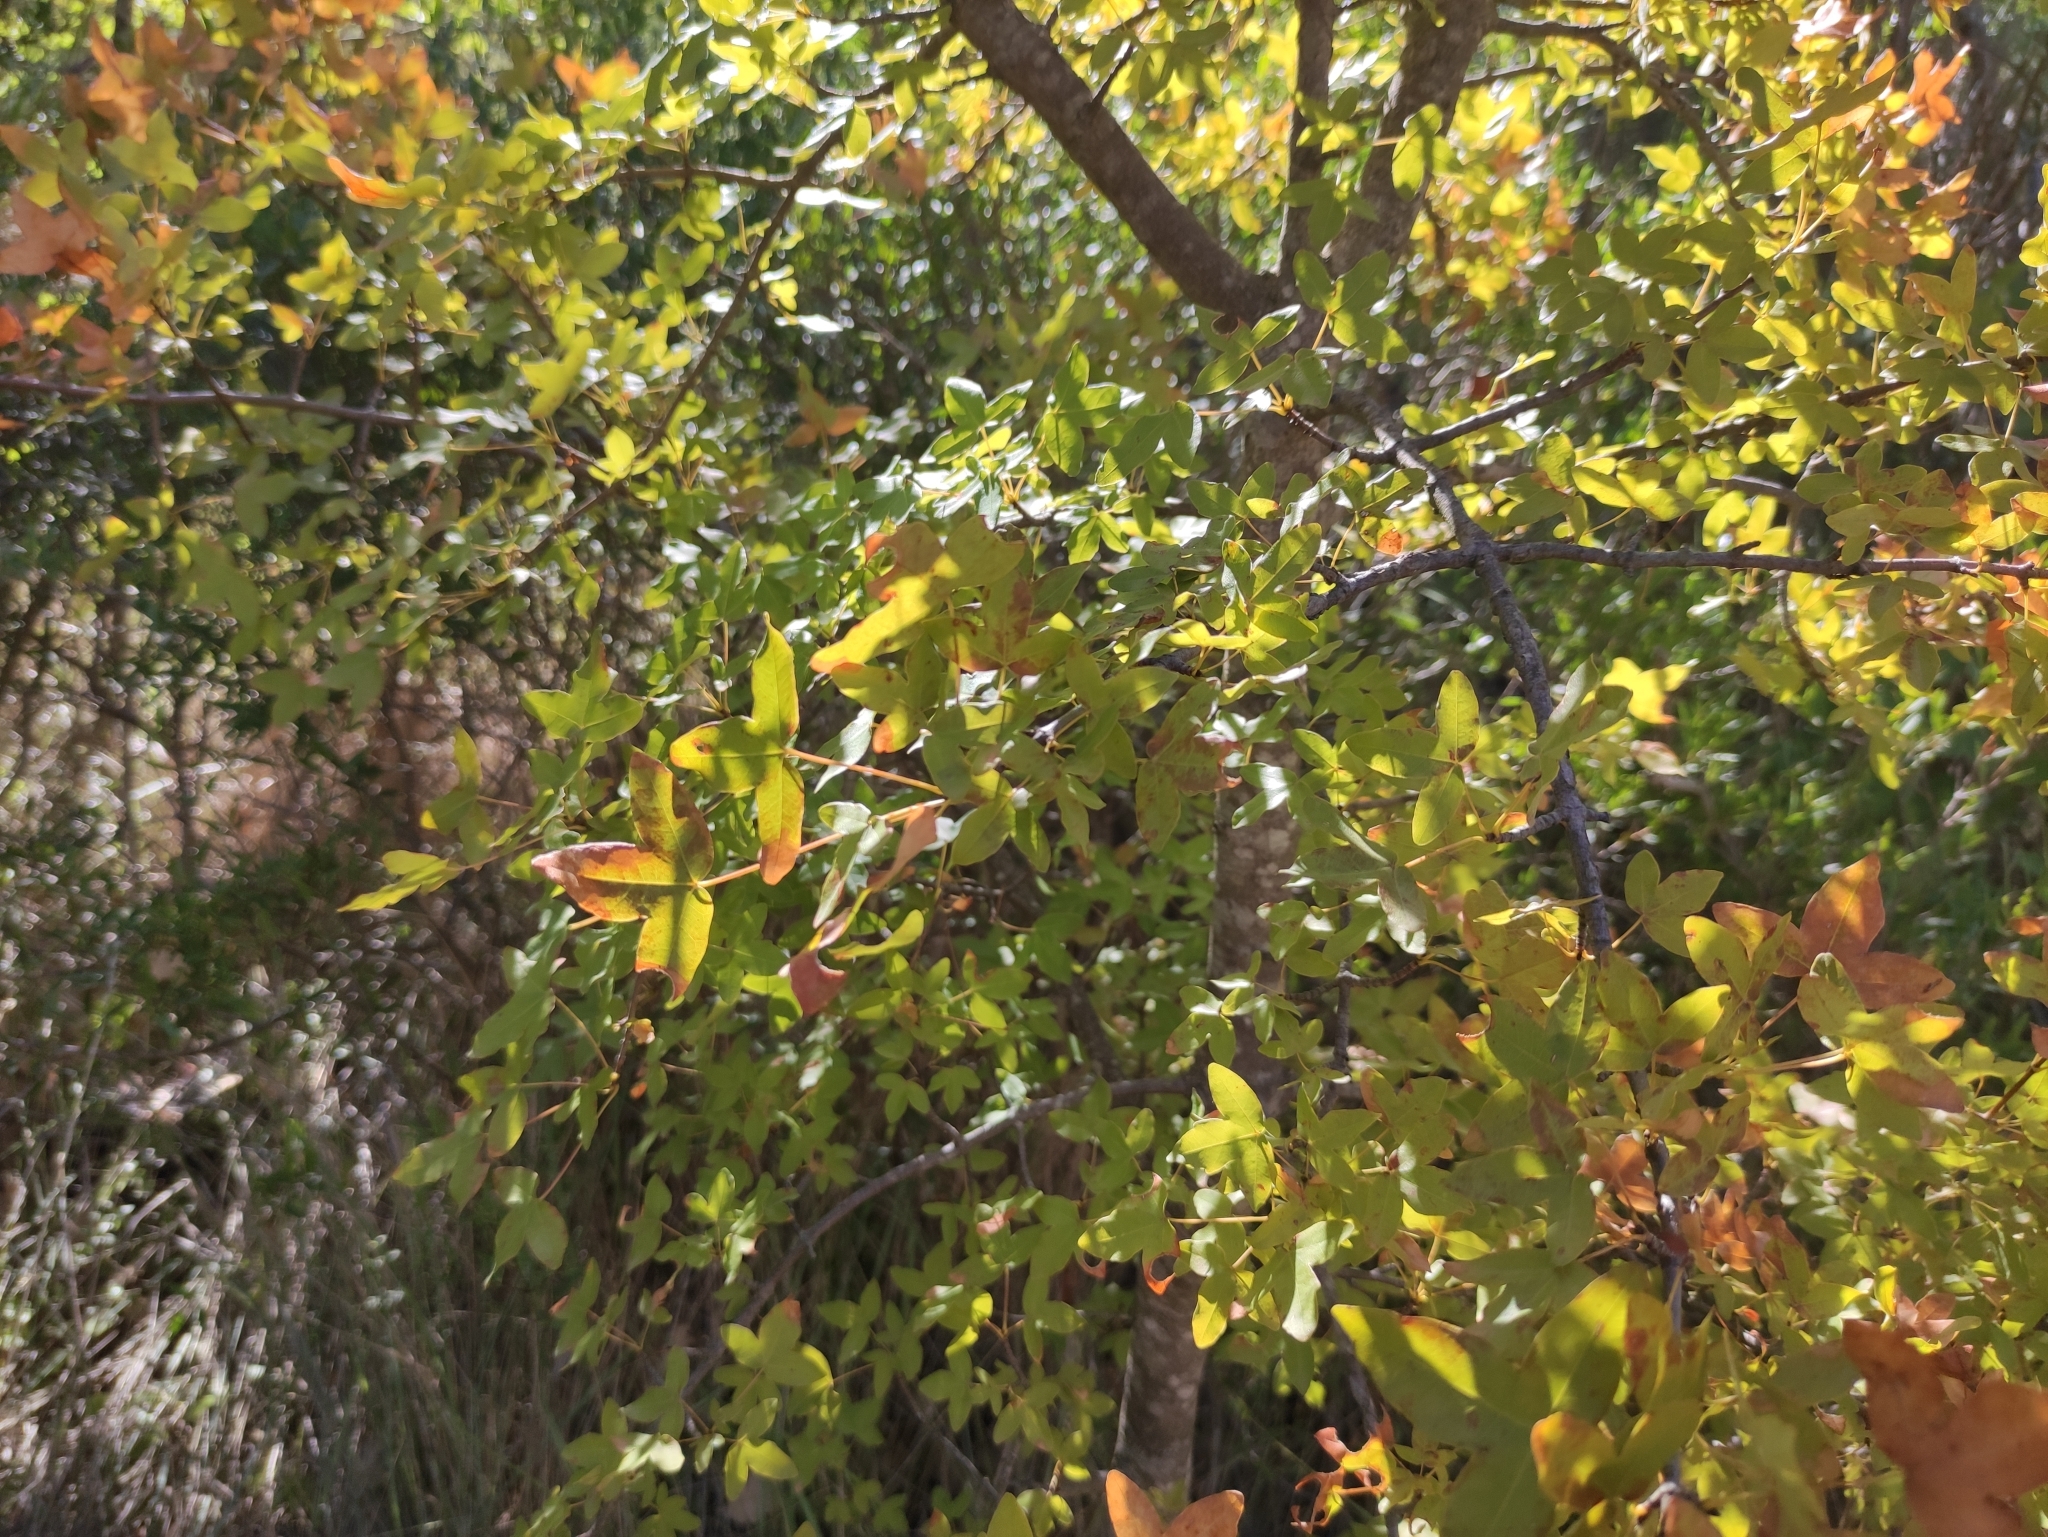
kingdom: Plantae
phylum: Tracheophyta
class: Magnoliopsida
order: Sapindales
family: Sapindaceae
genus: Acer
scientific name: Acer monspessulanum
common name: Montpellier maple
